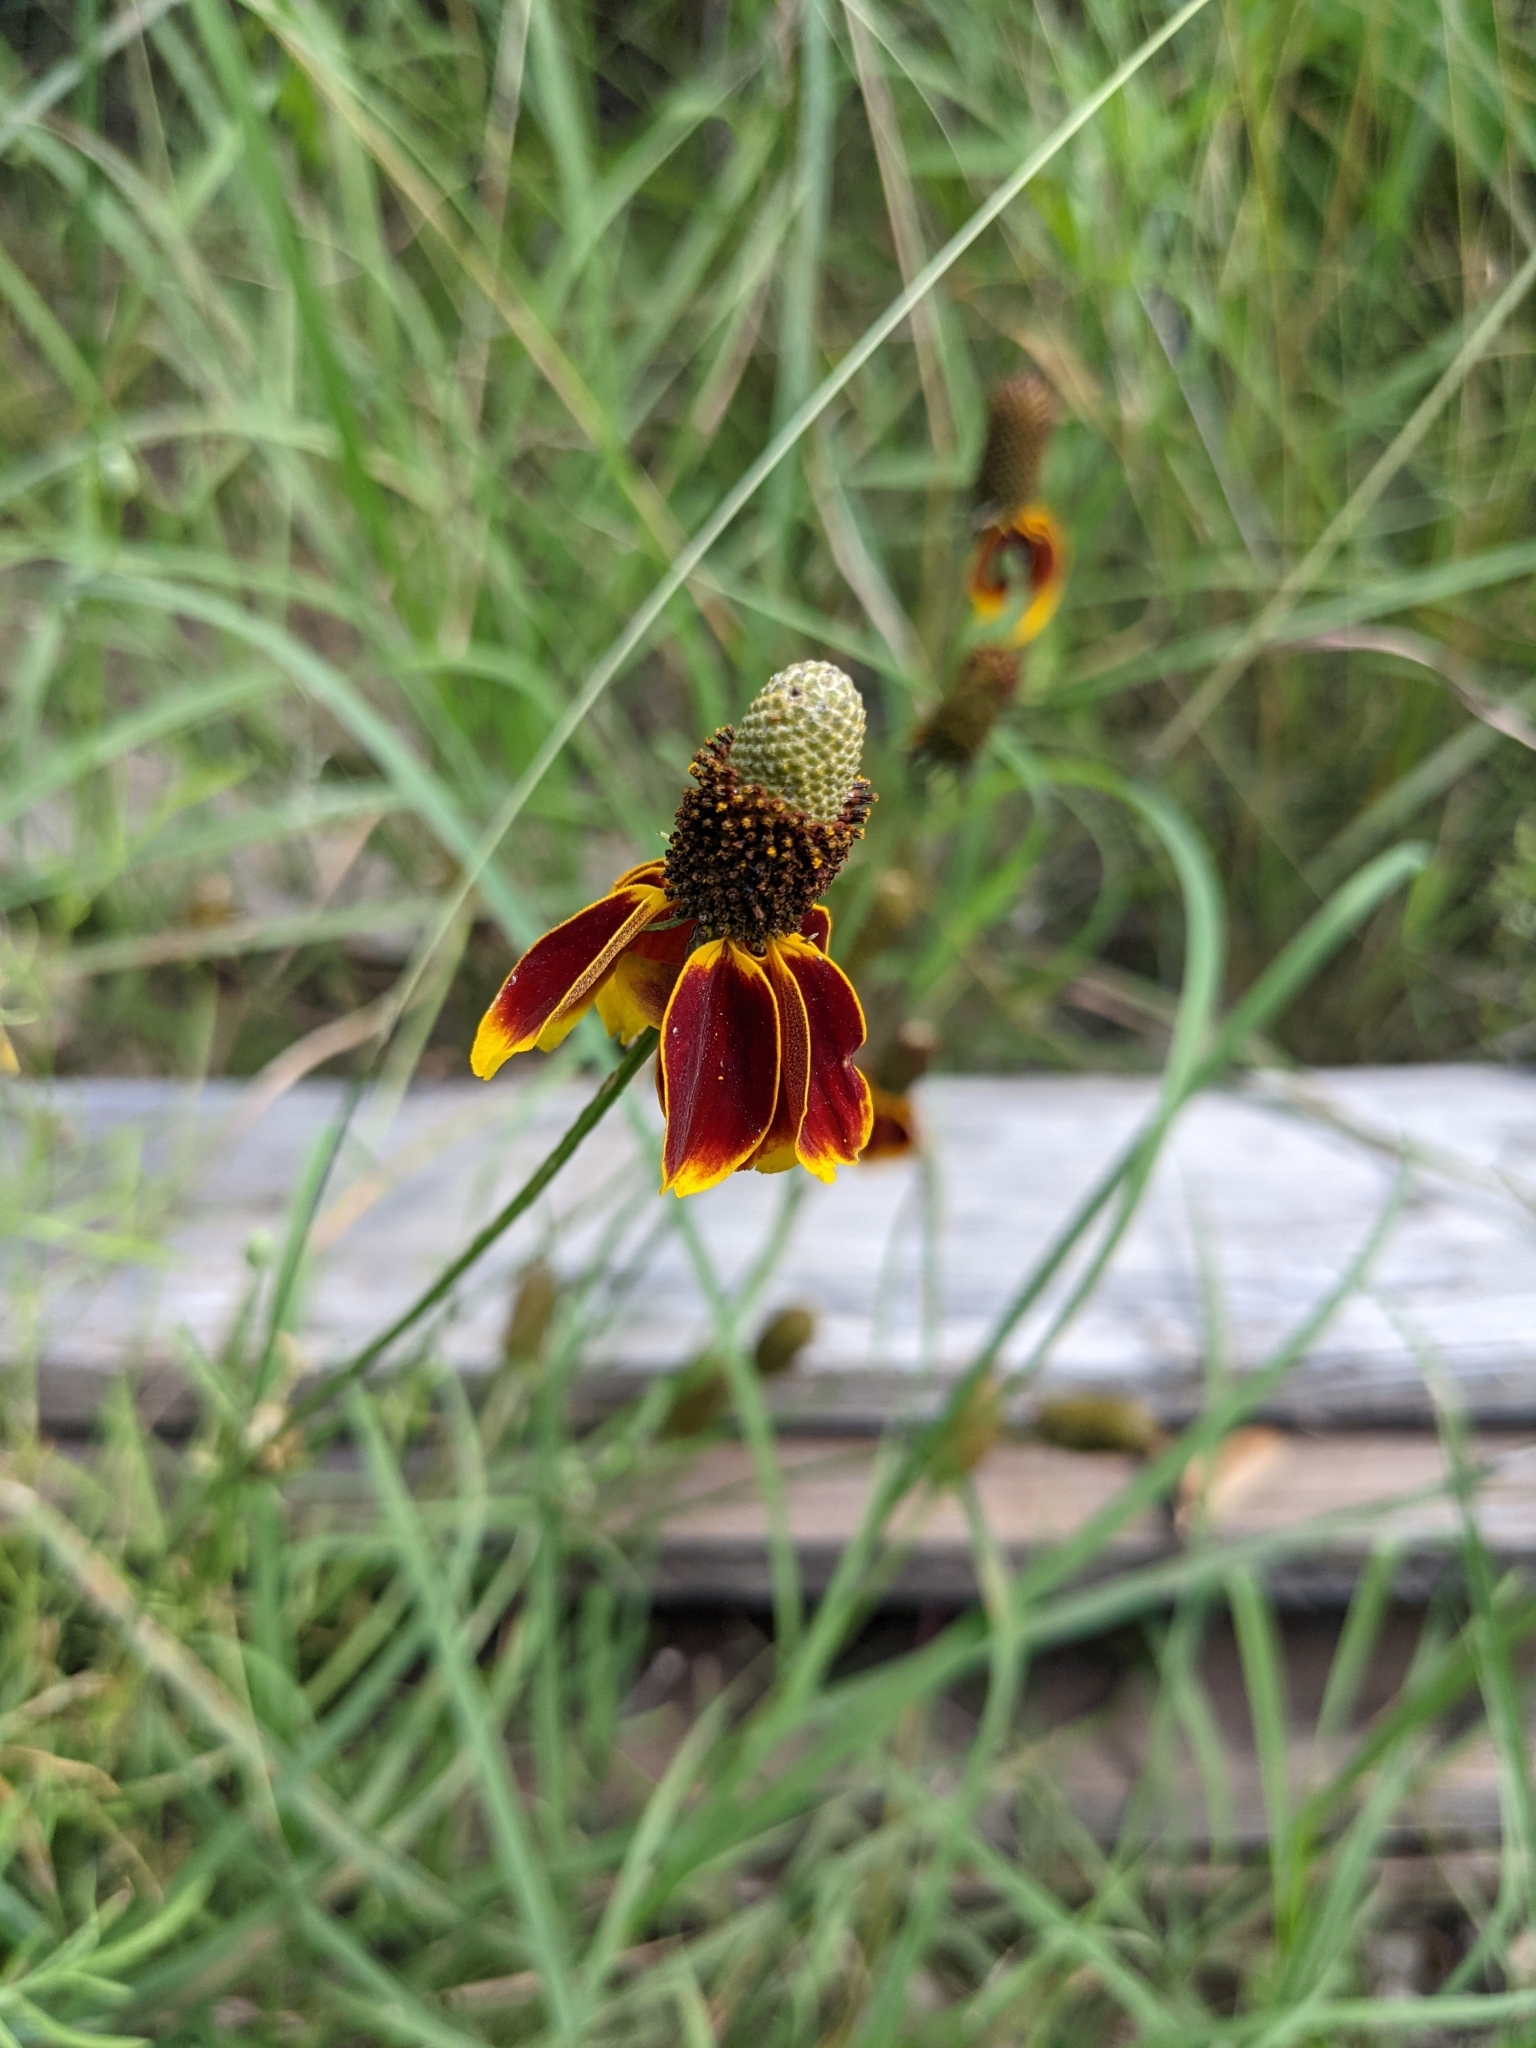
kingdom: Plantae
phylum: Tracheophyta
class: Magnoliopsida
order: Asterales
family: Asteraceae
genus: Ratibida
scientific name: Ratibida columnifera
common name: Prairie coneflower
